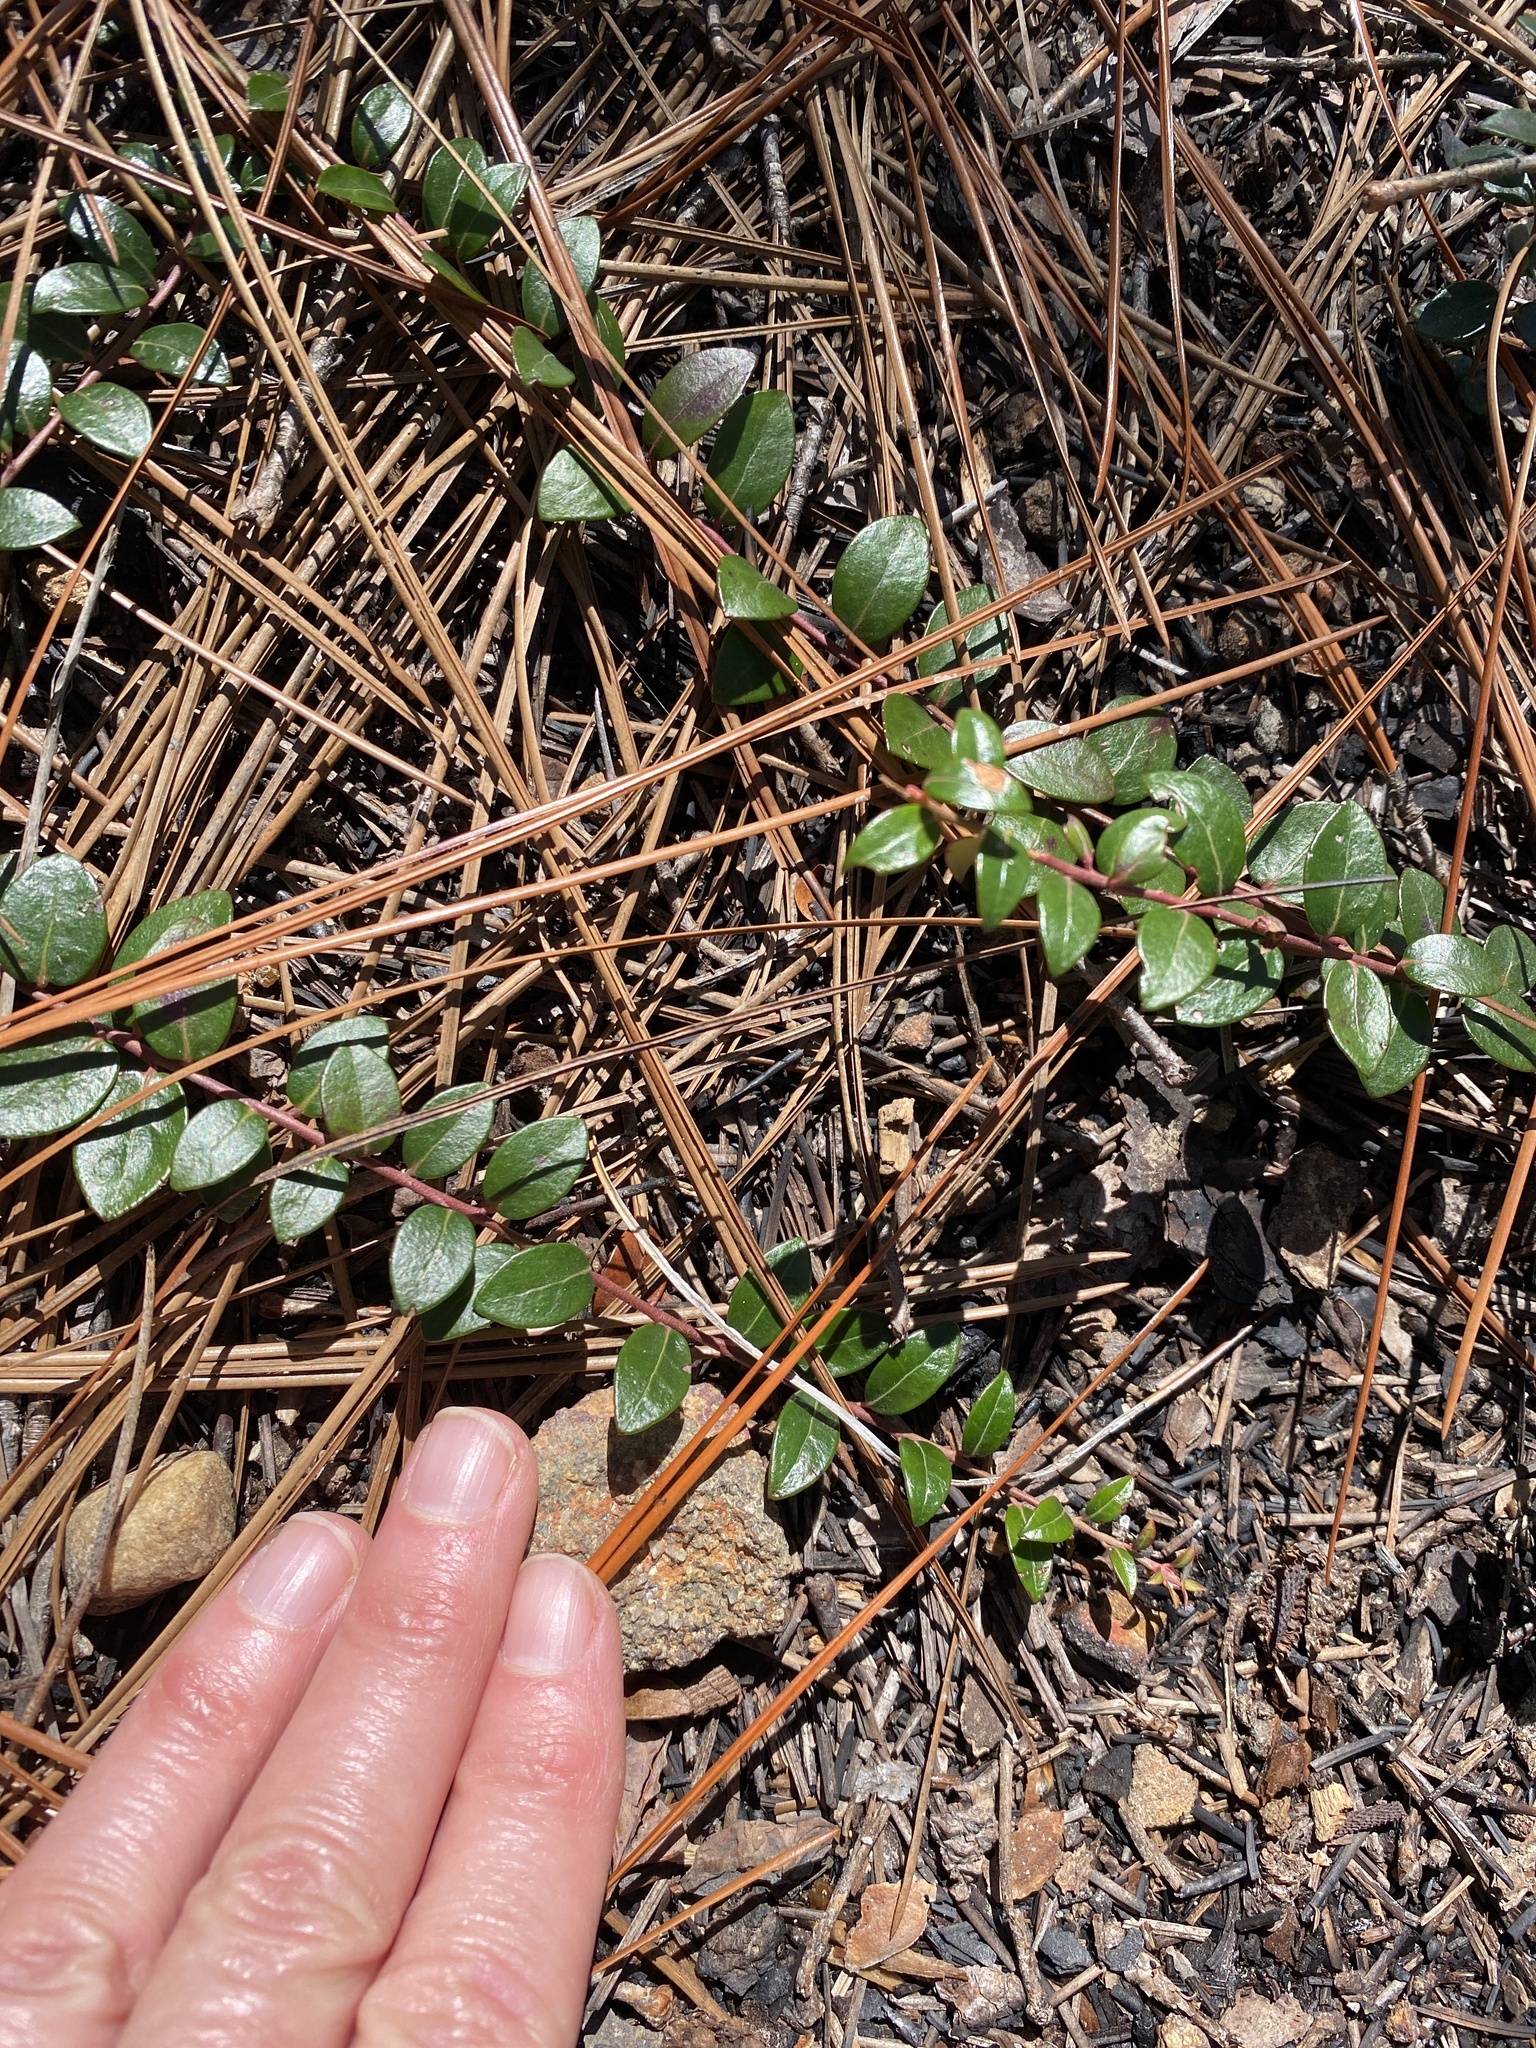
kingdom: Plantae
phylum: Tracheophyta
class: Magnoliopsida
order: Ericales
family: Ericaceae
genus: Vaccinium
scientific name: Vaccinium crassifolium
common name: Creeping blueberry
